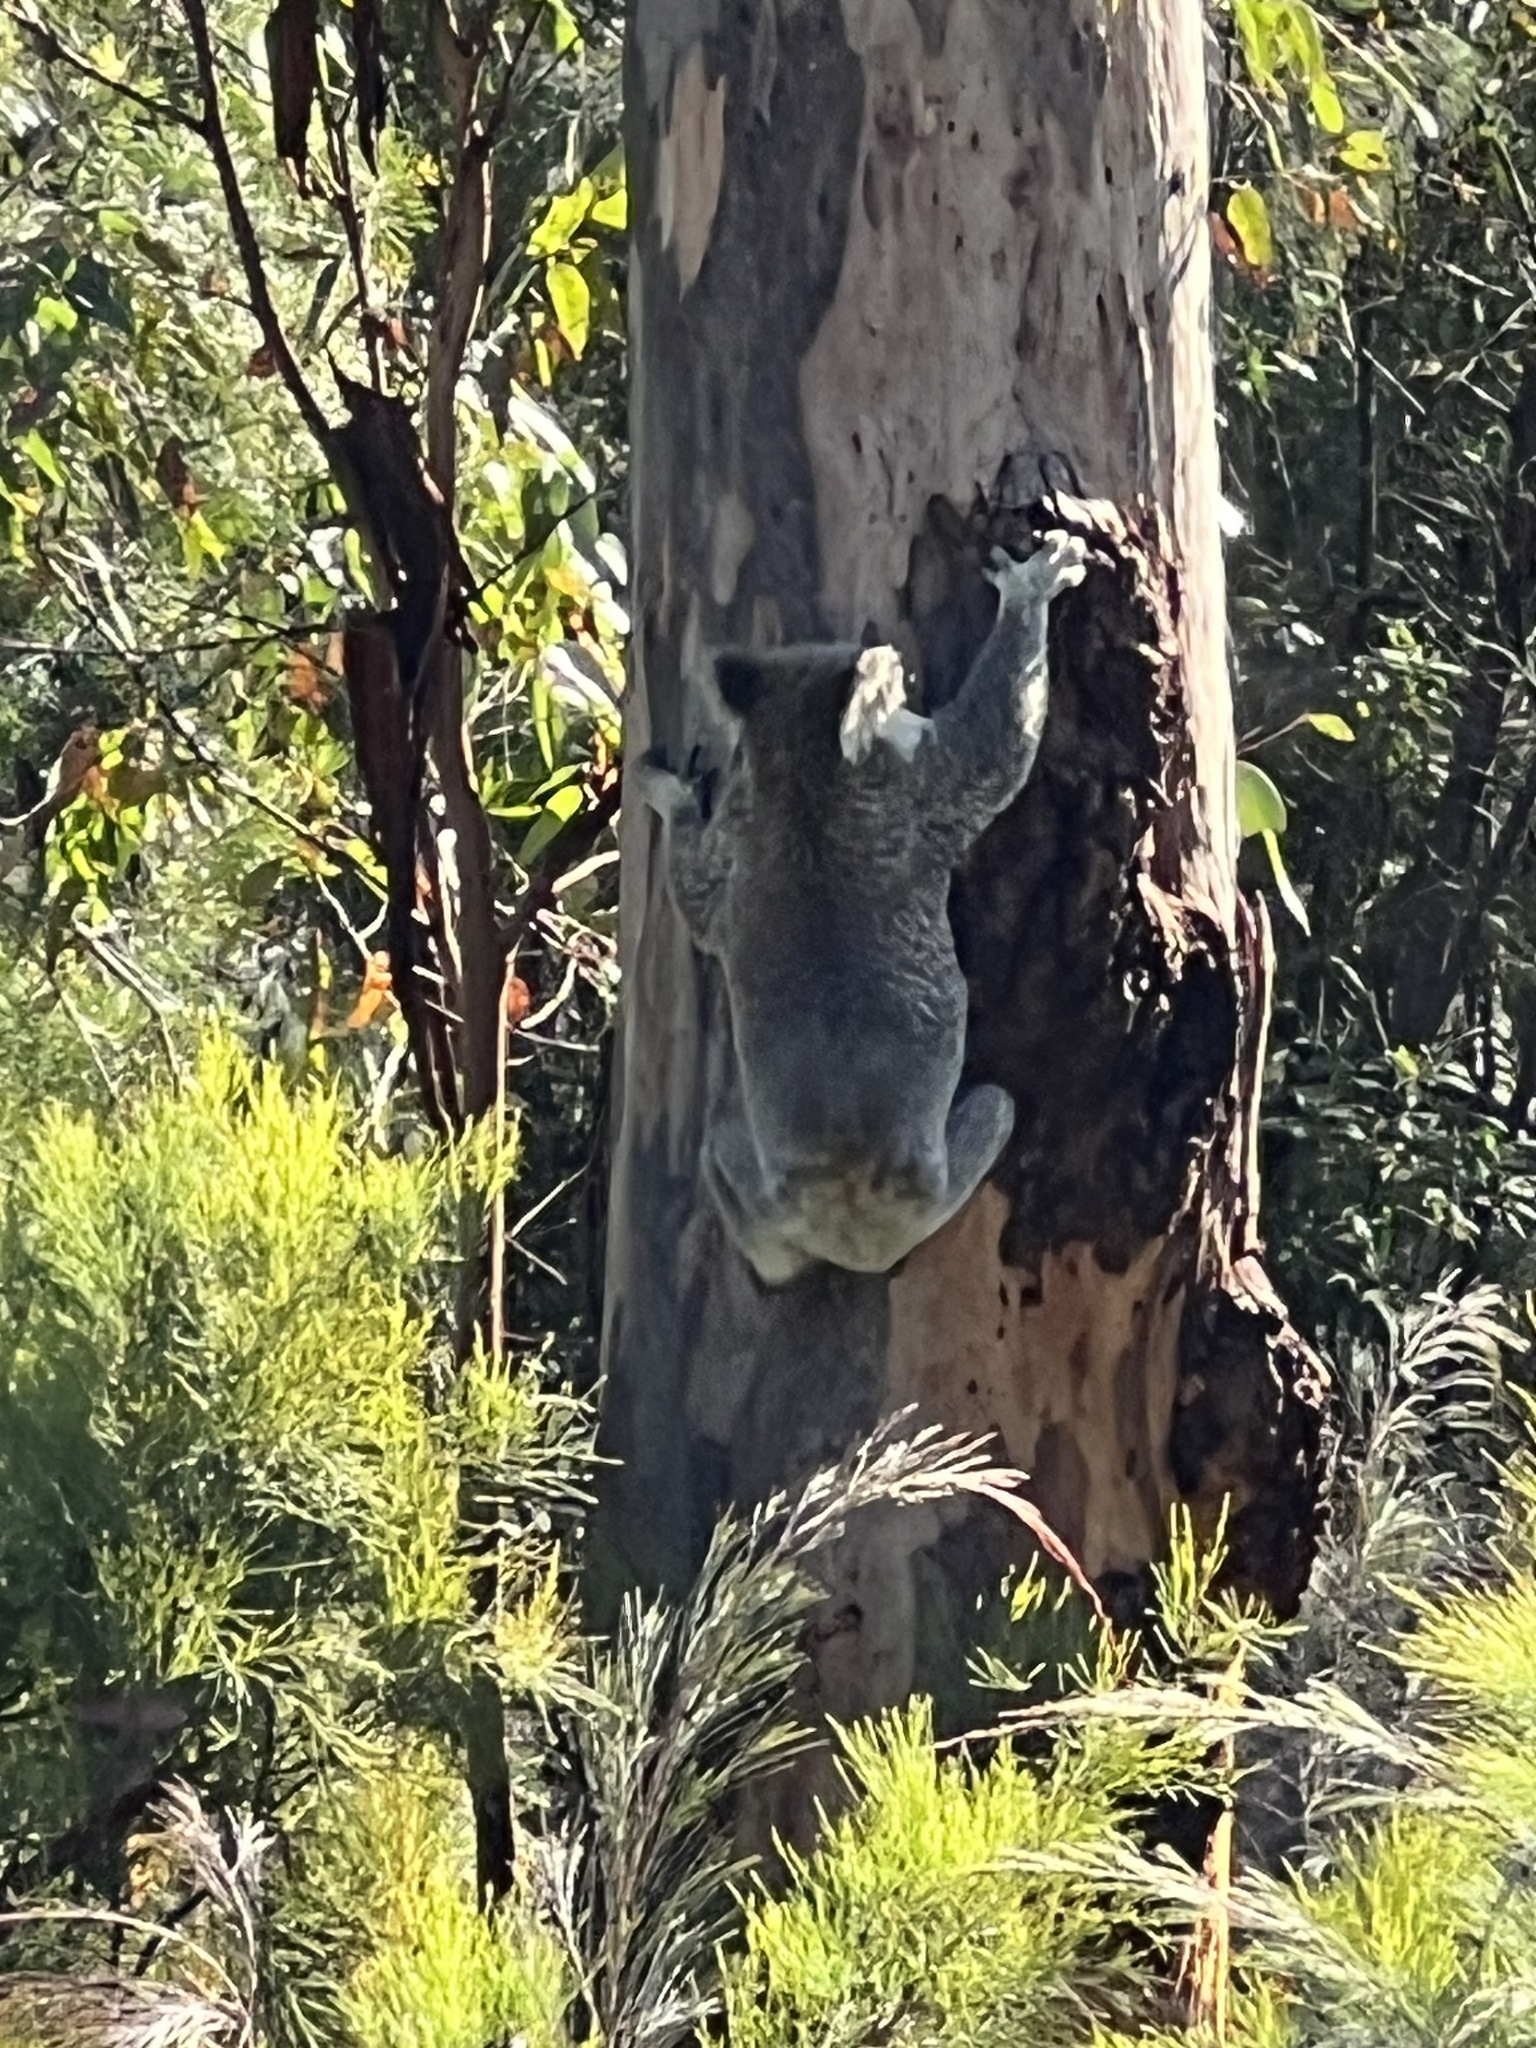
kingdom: Animalia
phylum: Chordata
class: Mammalia
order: Diprotodontia
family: Phascolarctidae
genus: Phascolarctos
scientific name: Phascolarctos cinereus
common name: Koala
